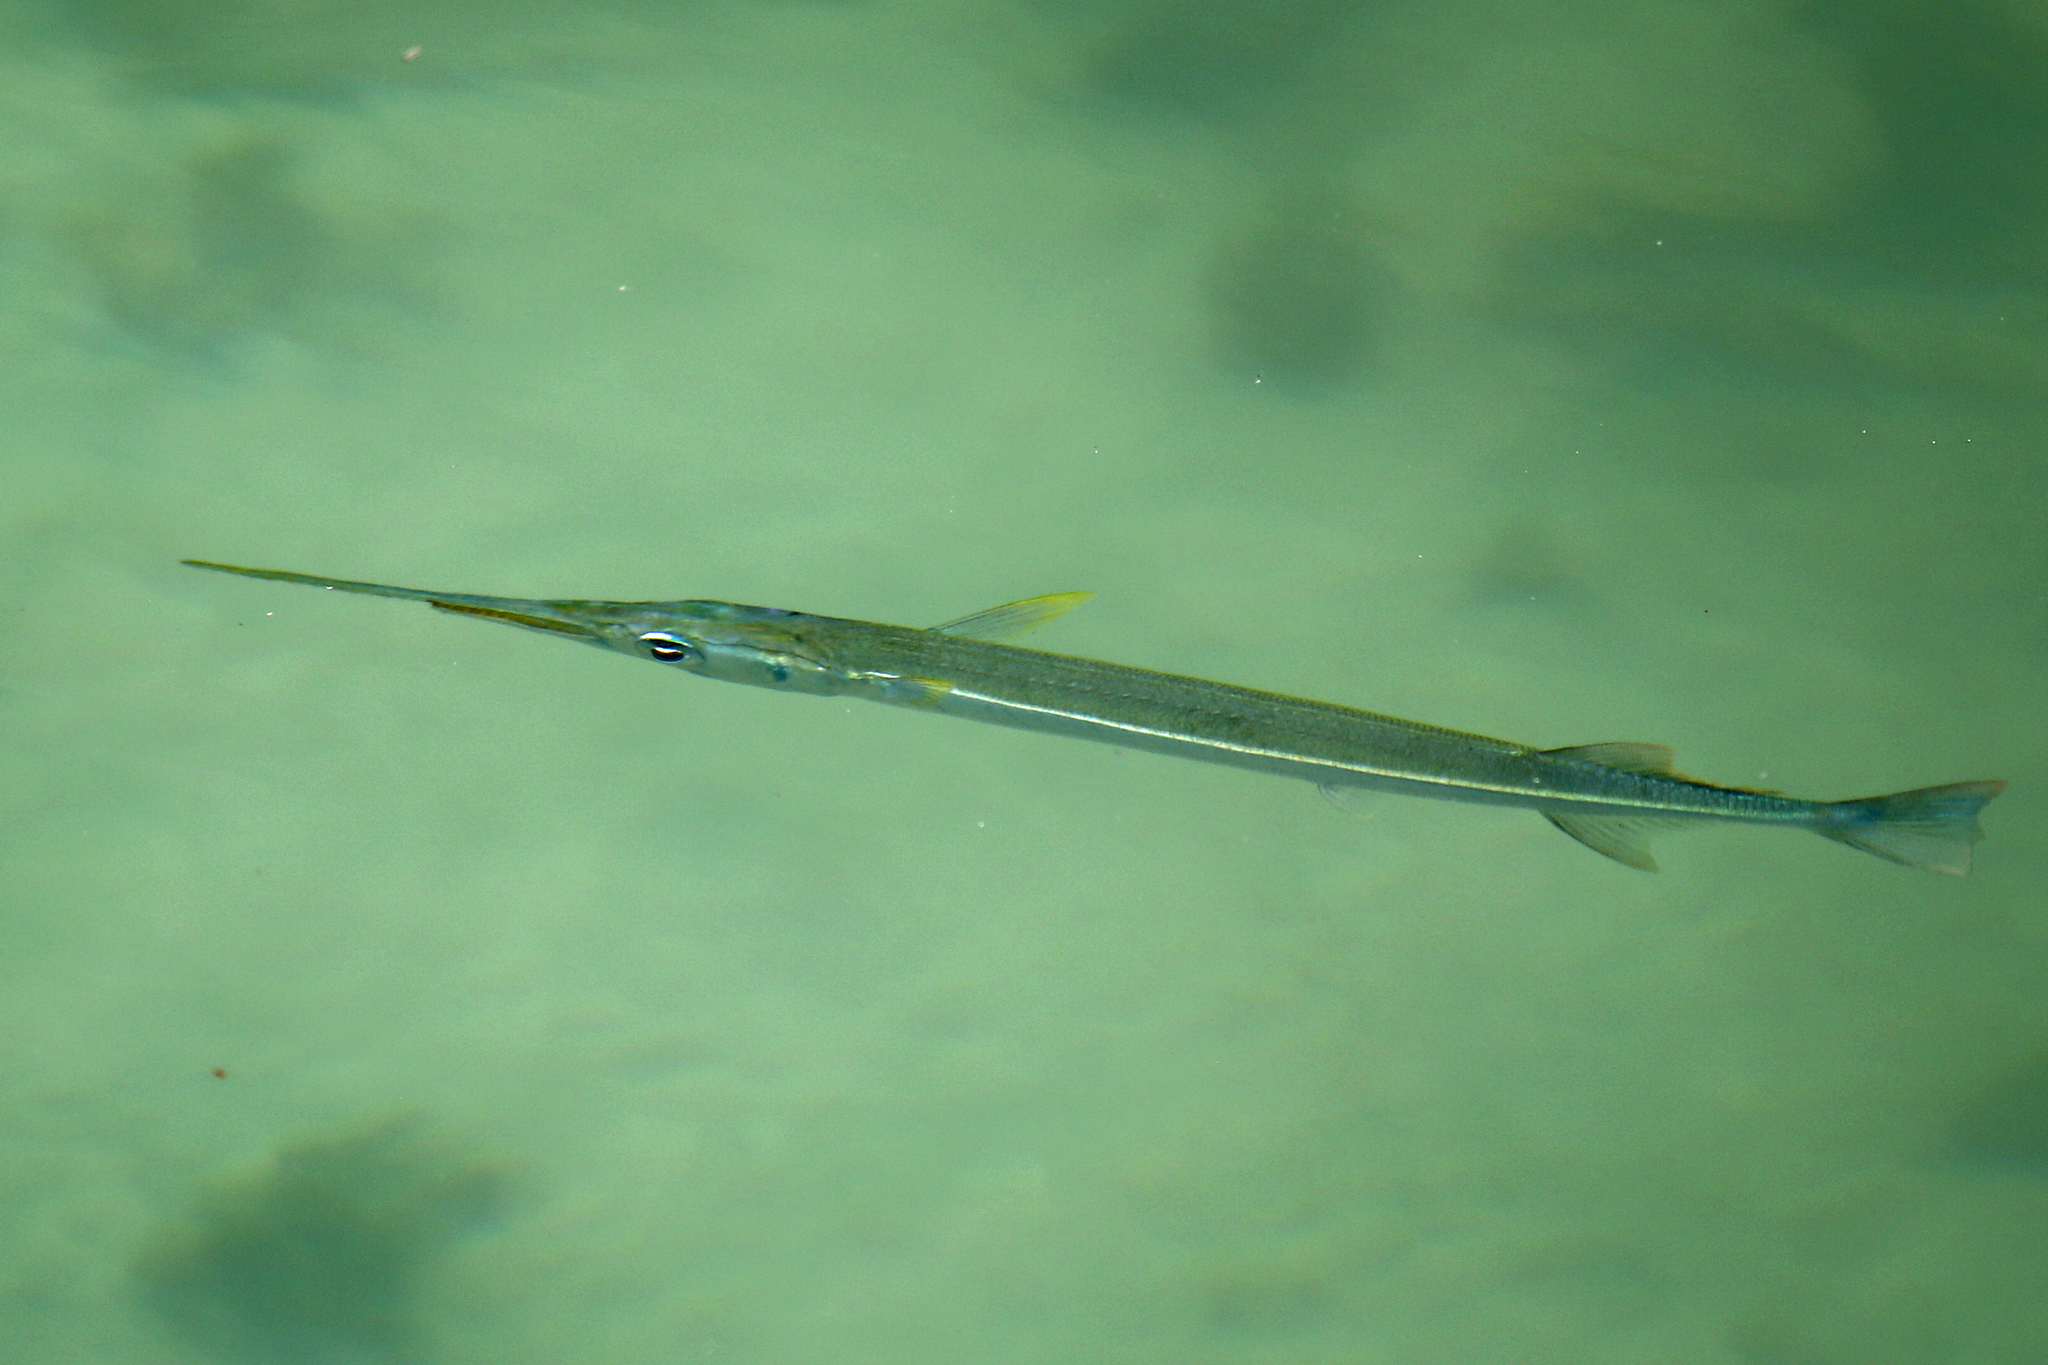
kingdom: Animalia
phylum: Chordata
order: Beloniformes
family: Belonidae
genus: Strongylura
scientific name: Strongylura notata
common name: Redfin needlefish
